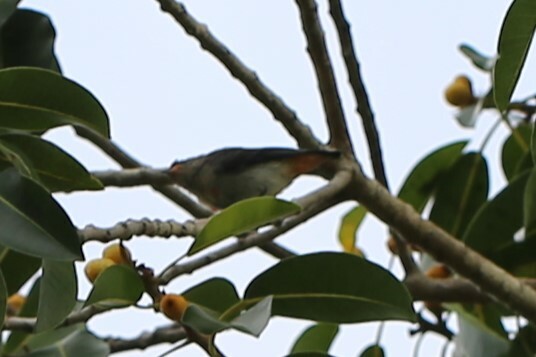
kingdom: Animalia
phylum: Chordata
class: Aves
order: Passeriformes
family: Dicaeidae
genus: Dicaeum
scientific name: Dicaeum hirundinaceum
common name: Mistletoebird
